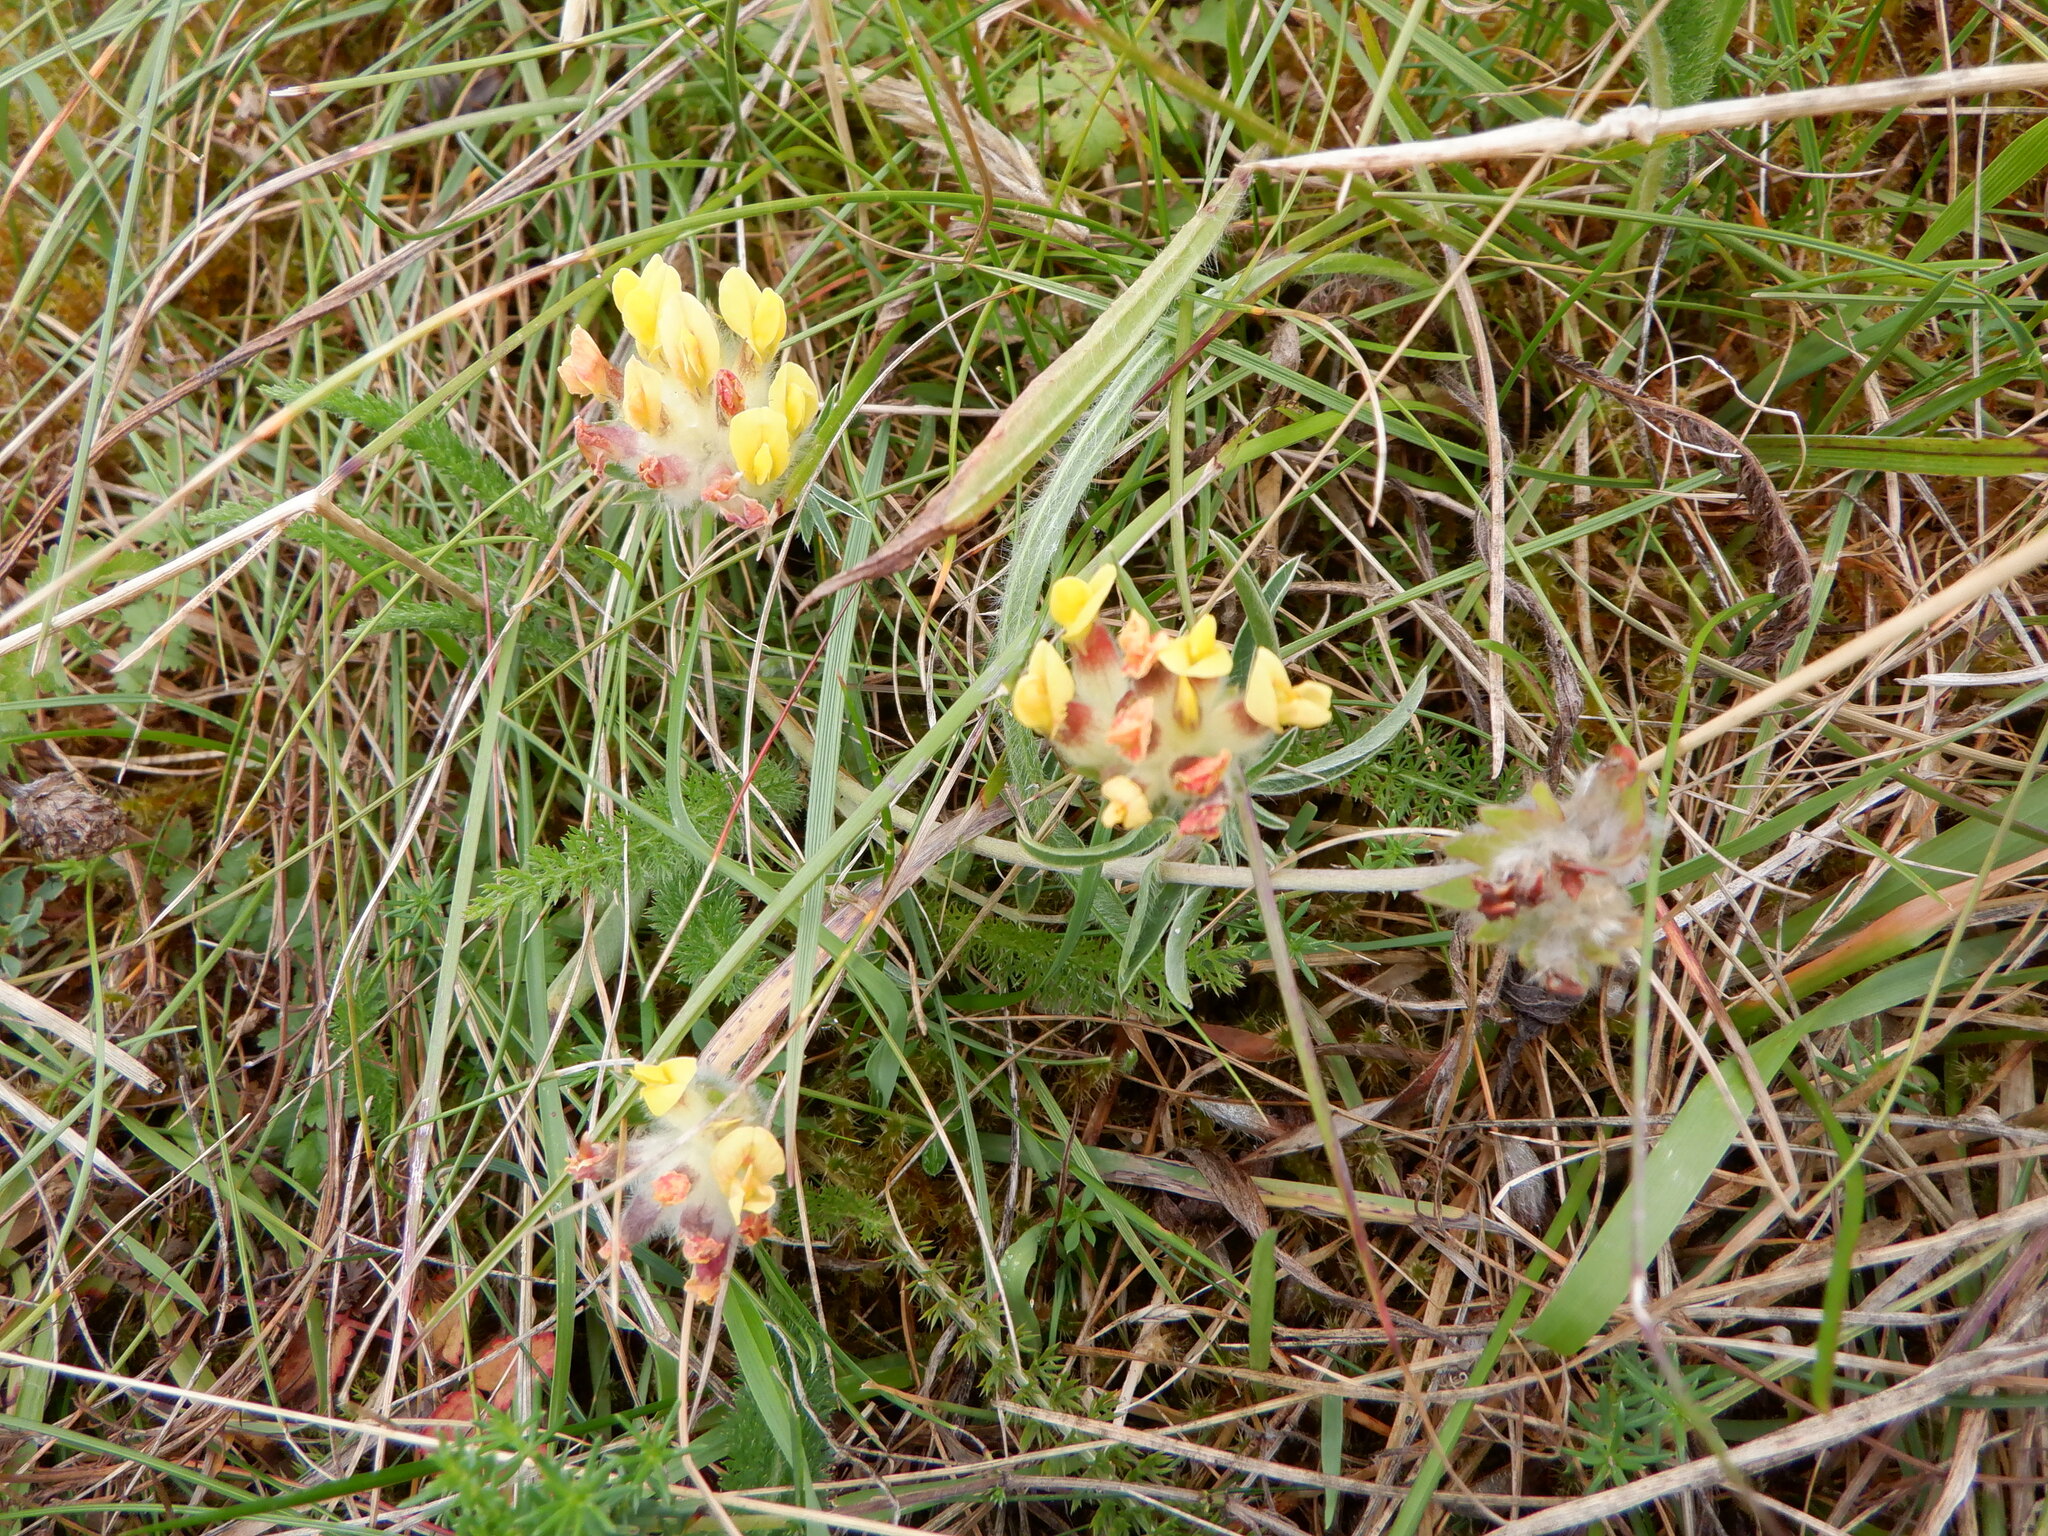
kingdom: Plantae
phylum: Tracheophyta
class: Magnoliopsida
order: Fabales
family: Fabaceae
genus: Anthyllis
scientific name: Anthyllis vulneraria
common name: Kidney vetch
